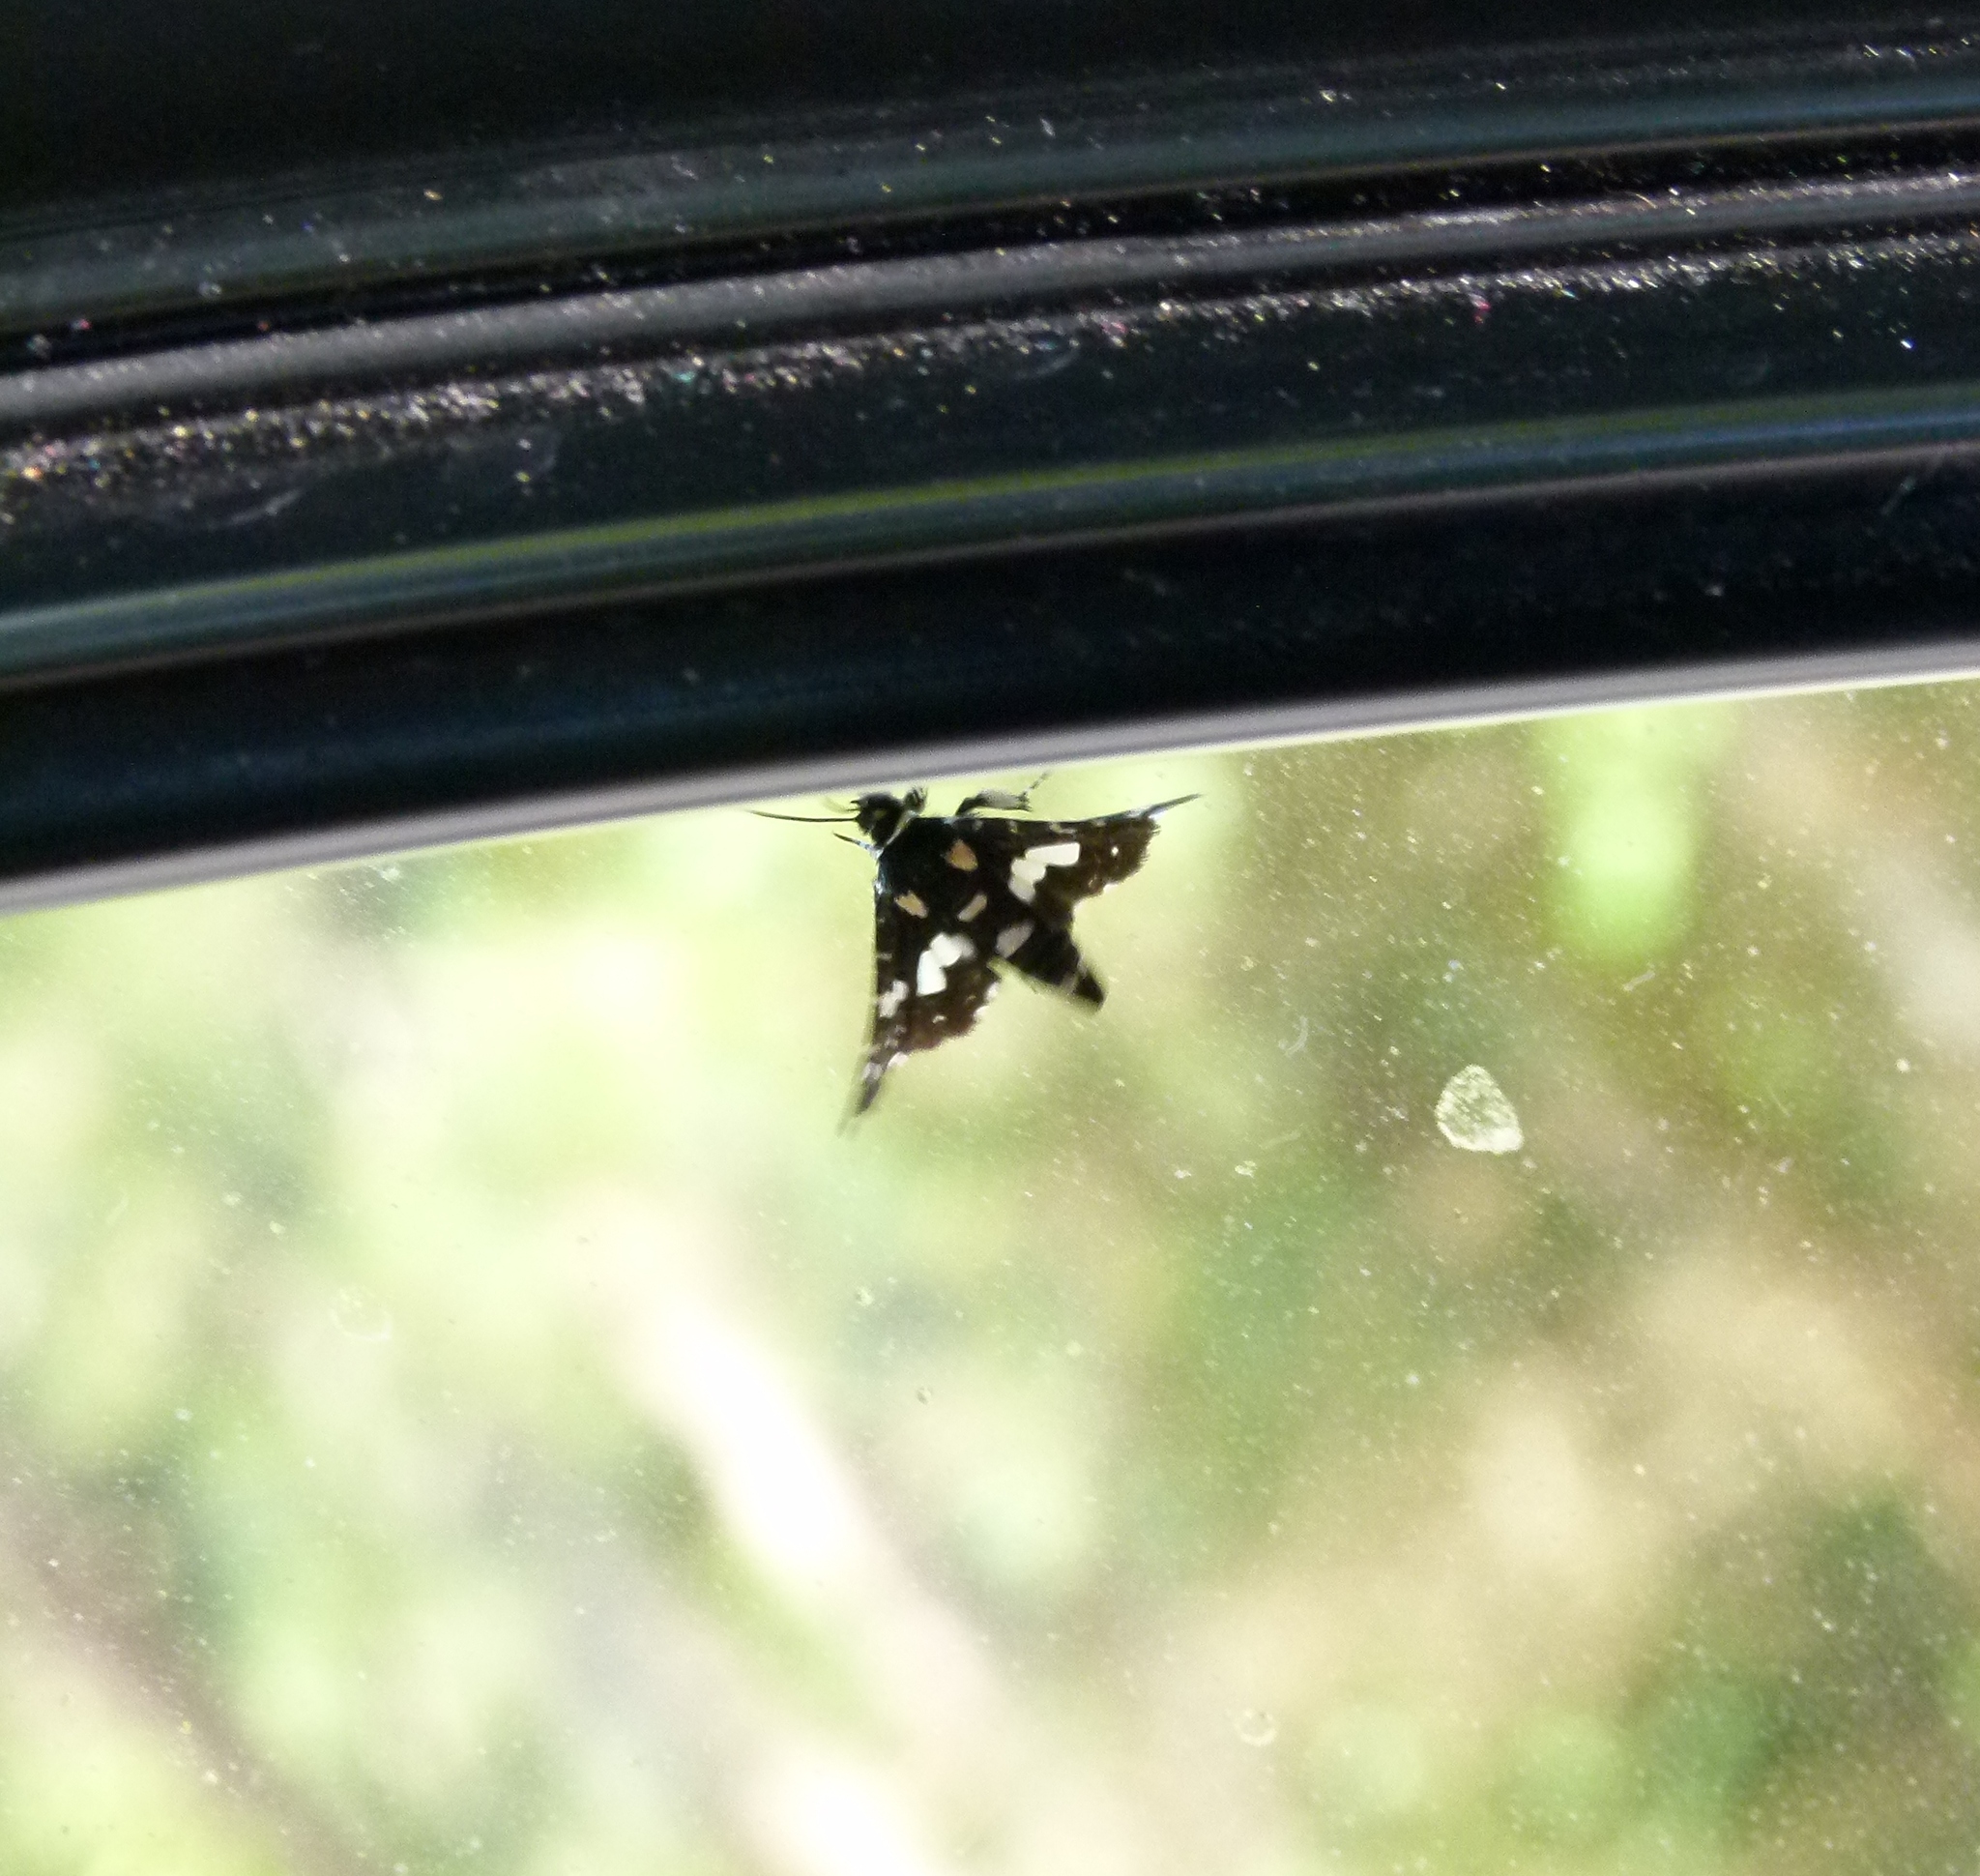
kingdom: Animalia
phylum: Arthropoda
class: Insecta
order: Lepidoptera
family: Thyrididae
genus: Pseudothyris
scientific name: Pseudothyris sepulchralis
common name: Mournful thyris moth
